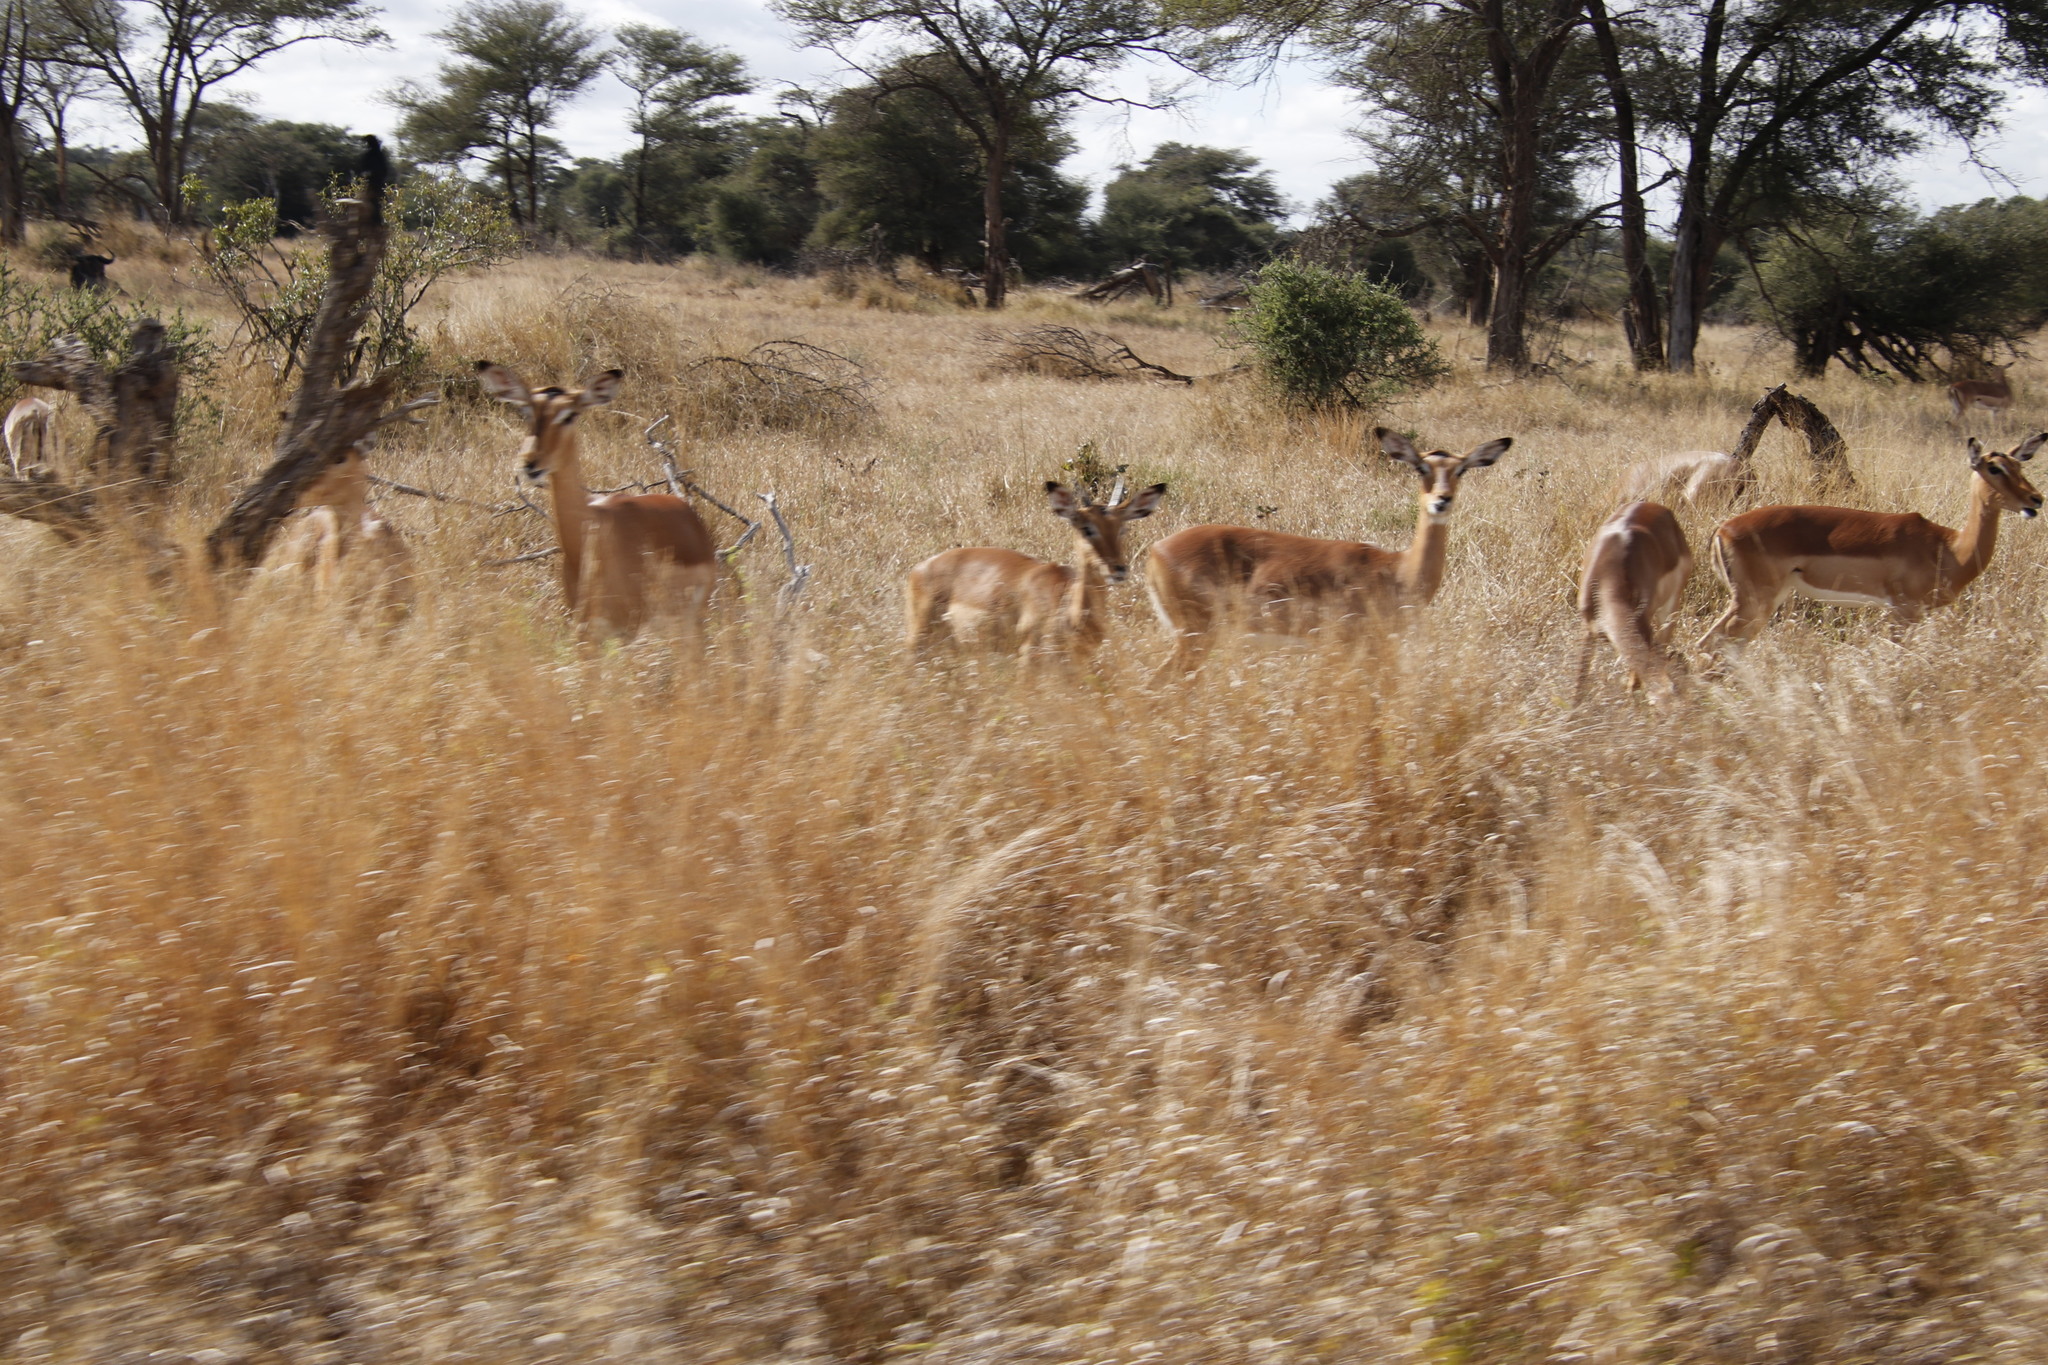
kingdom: Animalia
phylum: Chordata
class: Mammalia
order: Artiodactyla
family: Bovidae
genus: Aepyceros
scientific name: Aepyceros melampus
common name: Impala
